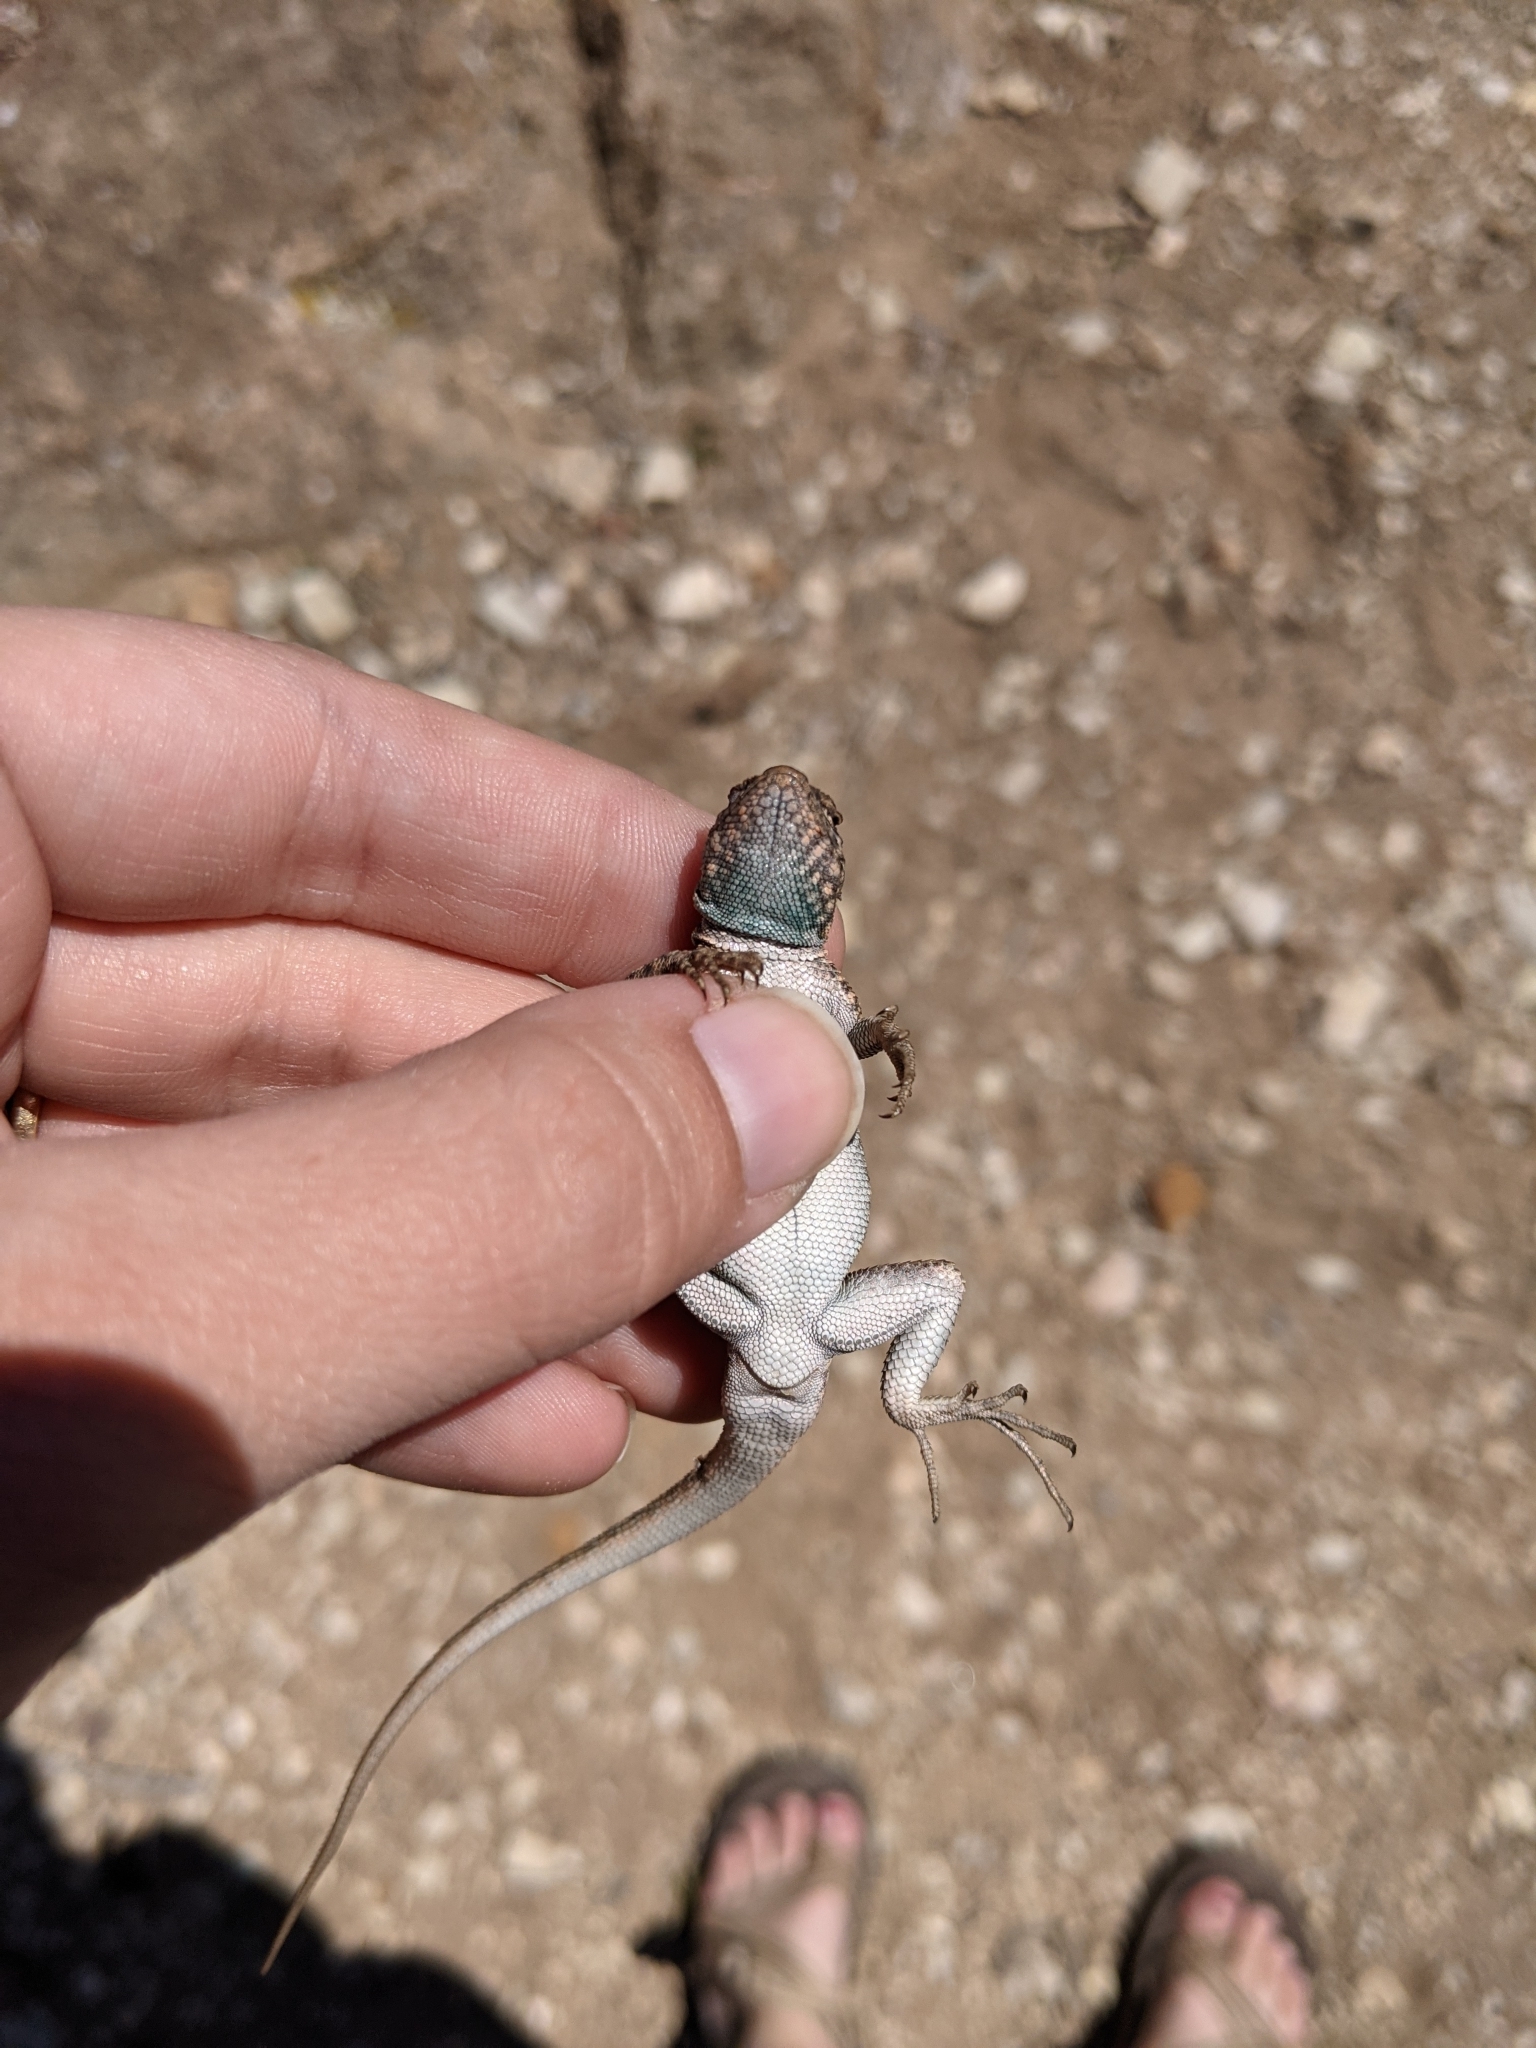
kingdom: Animalia
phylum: Chordata
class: Squamata
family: Phrynosomatidae
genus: Uta
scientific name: Uta stansburiana
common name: Side-blotched lizard
